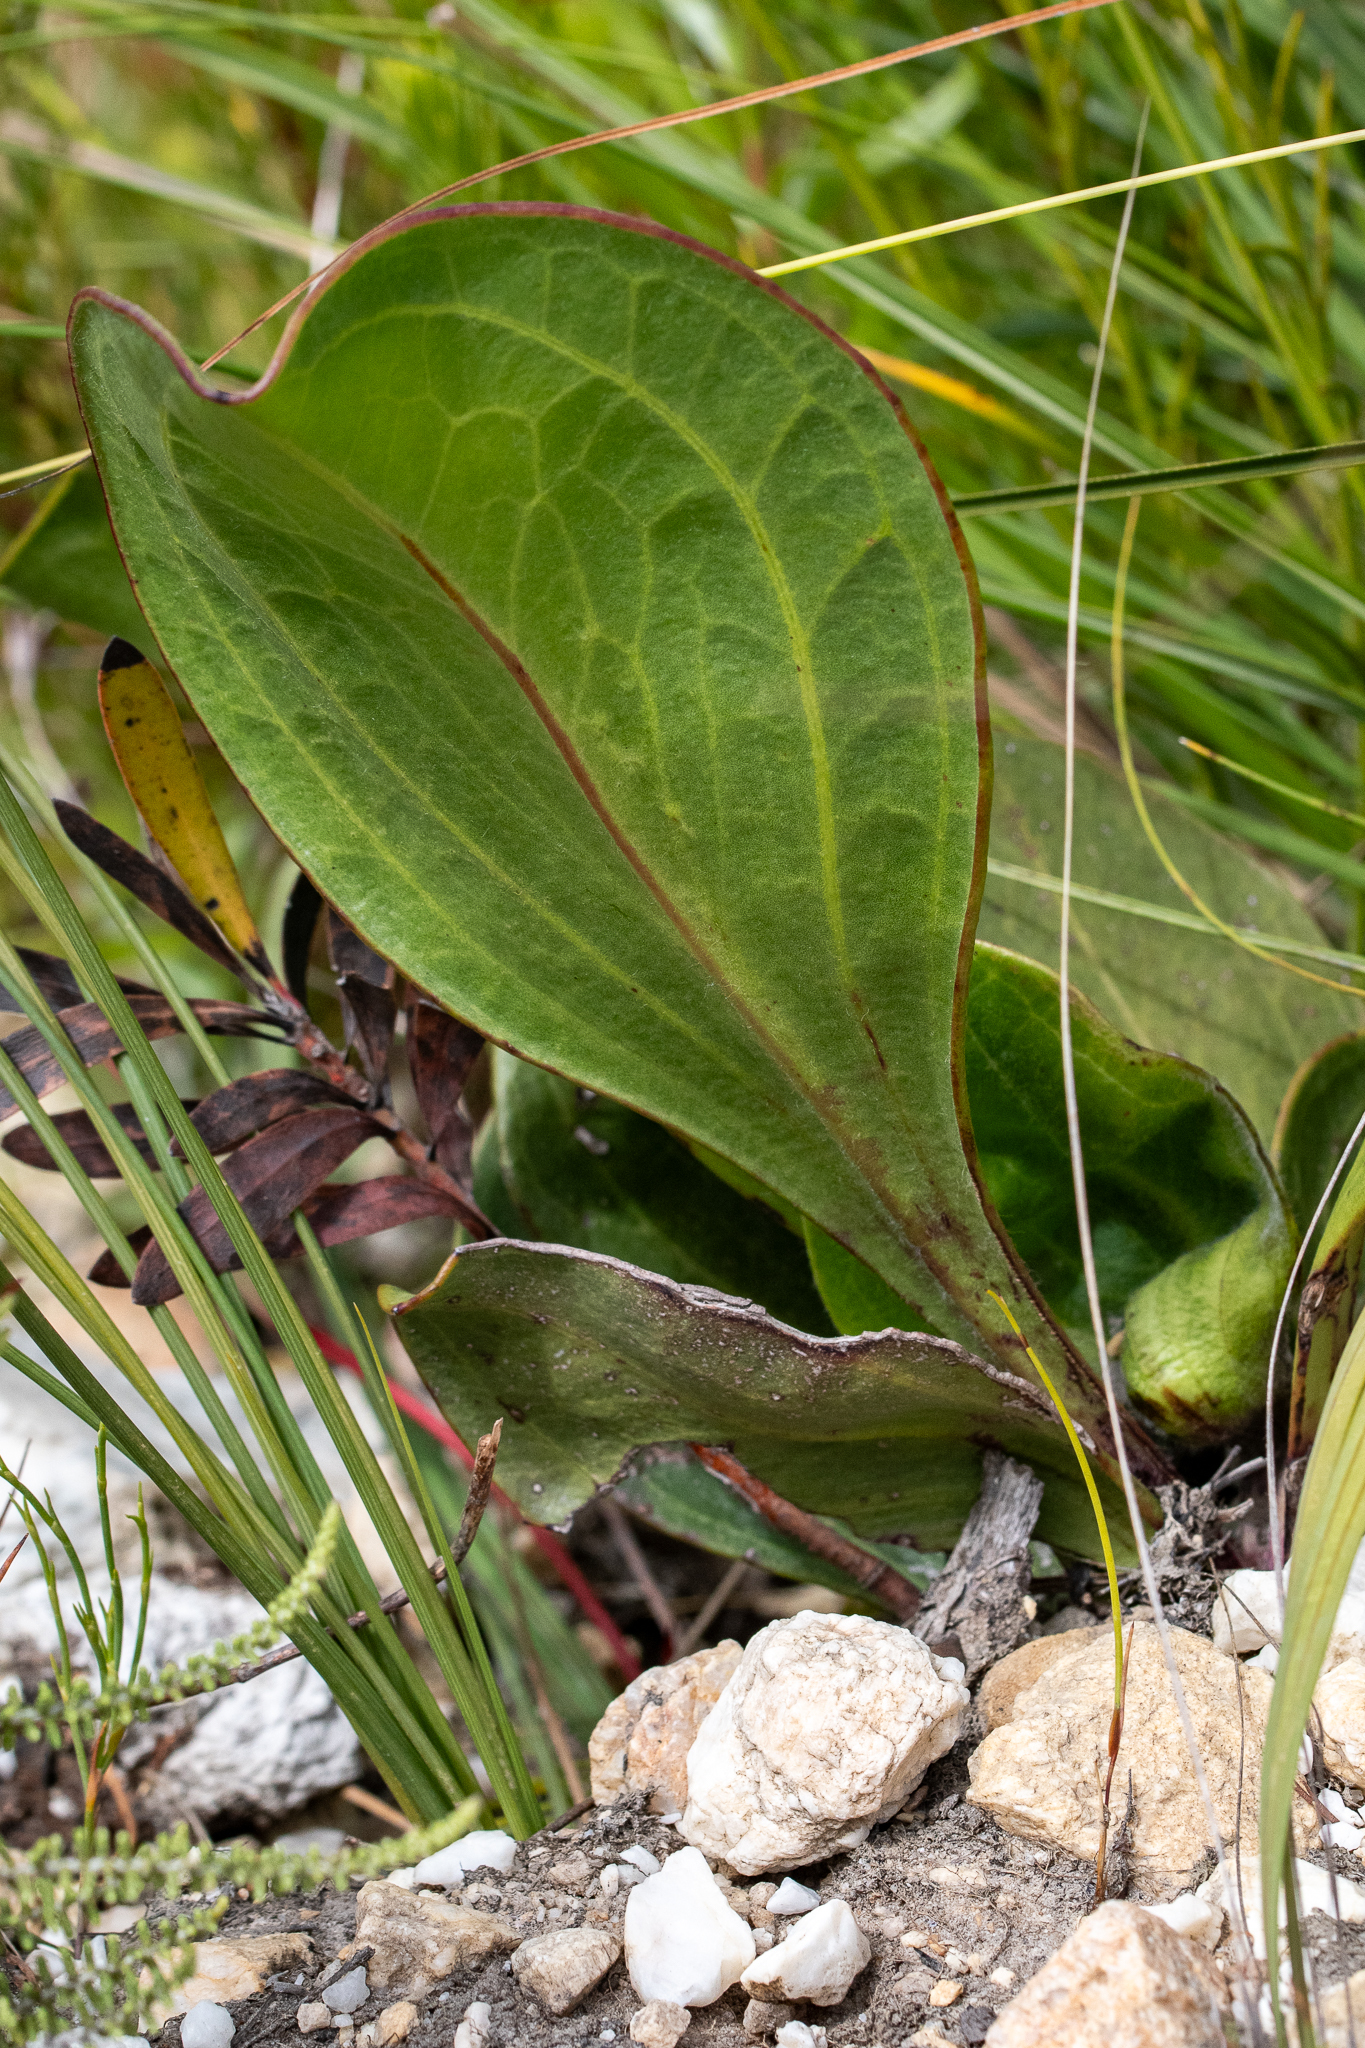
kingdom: Plantae
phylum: Tracheophyta
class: Magnoliopsida
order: Asterales
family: Asteraceae
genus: Mairia
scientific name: Mairia coriacea
